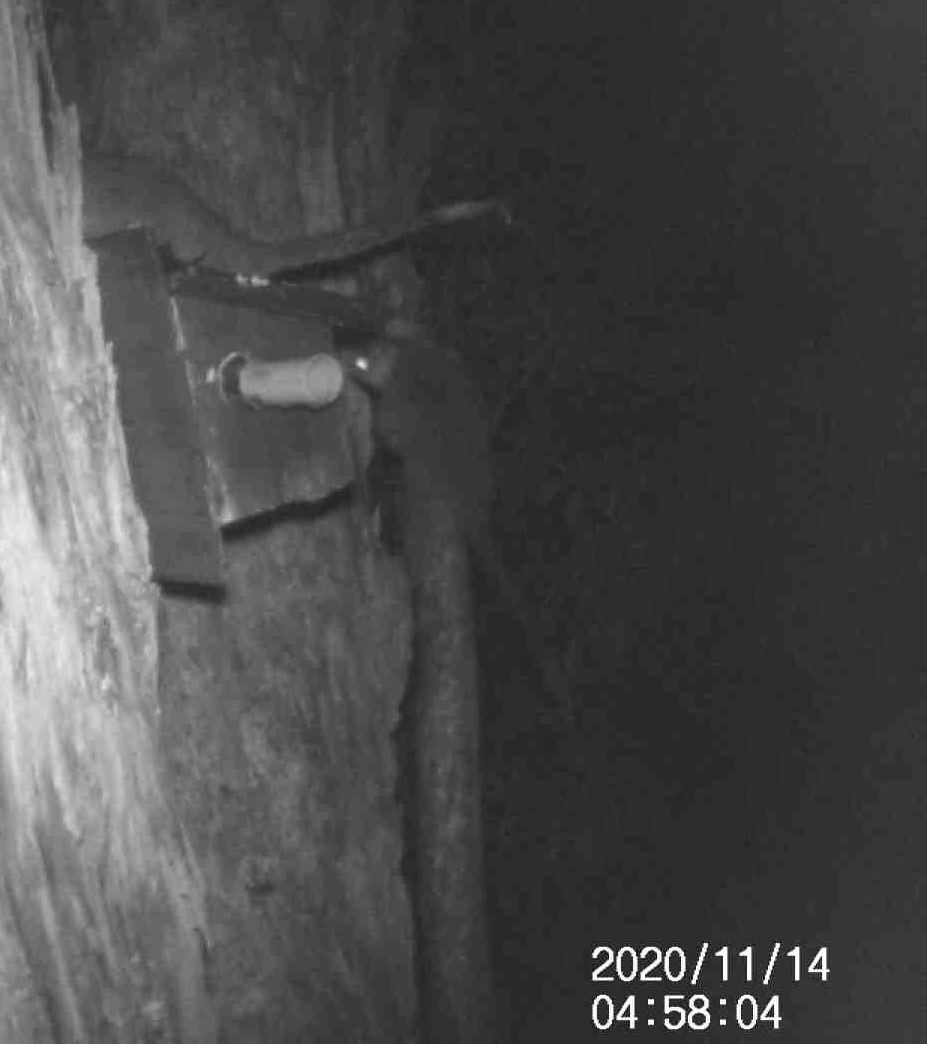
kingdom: Animalia
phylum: Chordata
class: Mammalia
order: Diprotodontia
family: Pseudocheiridae
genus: Pseudocheirus
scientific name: Pseudocheirus peregrinus
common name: Common ringtail possum
